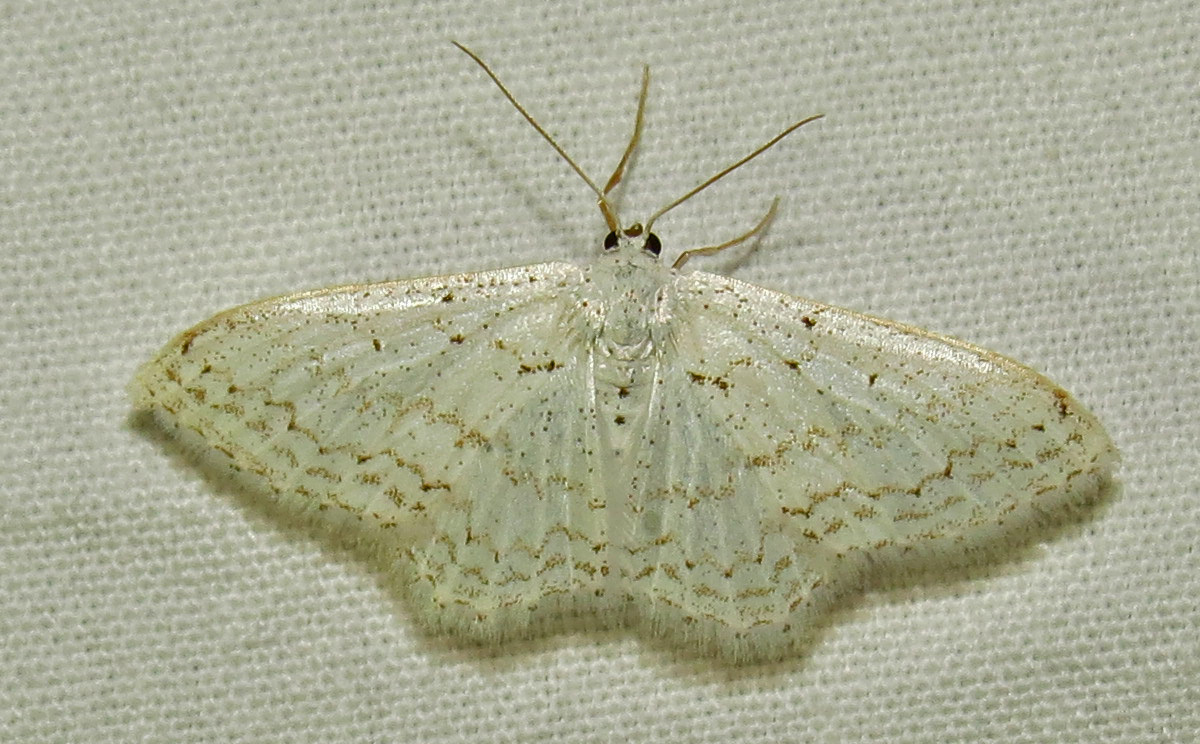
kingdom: Animalia
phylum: Arthropoda
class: Insecta
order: Lepidoptera
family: Geometridae
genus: Idaea
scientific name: Idaea tacturata
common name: Dot-lined wave
